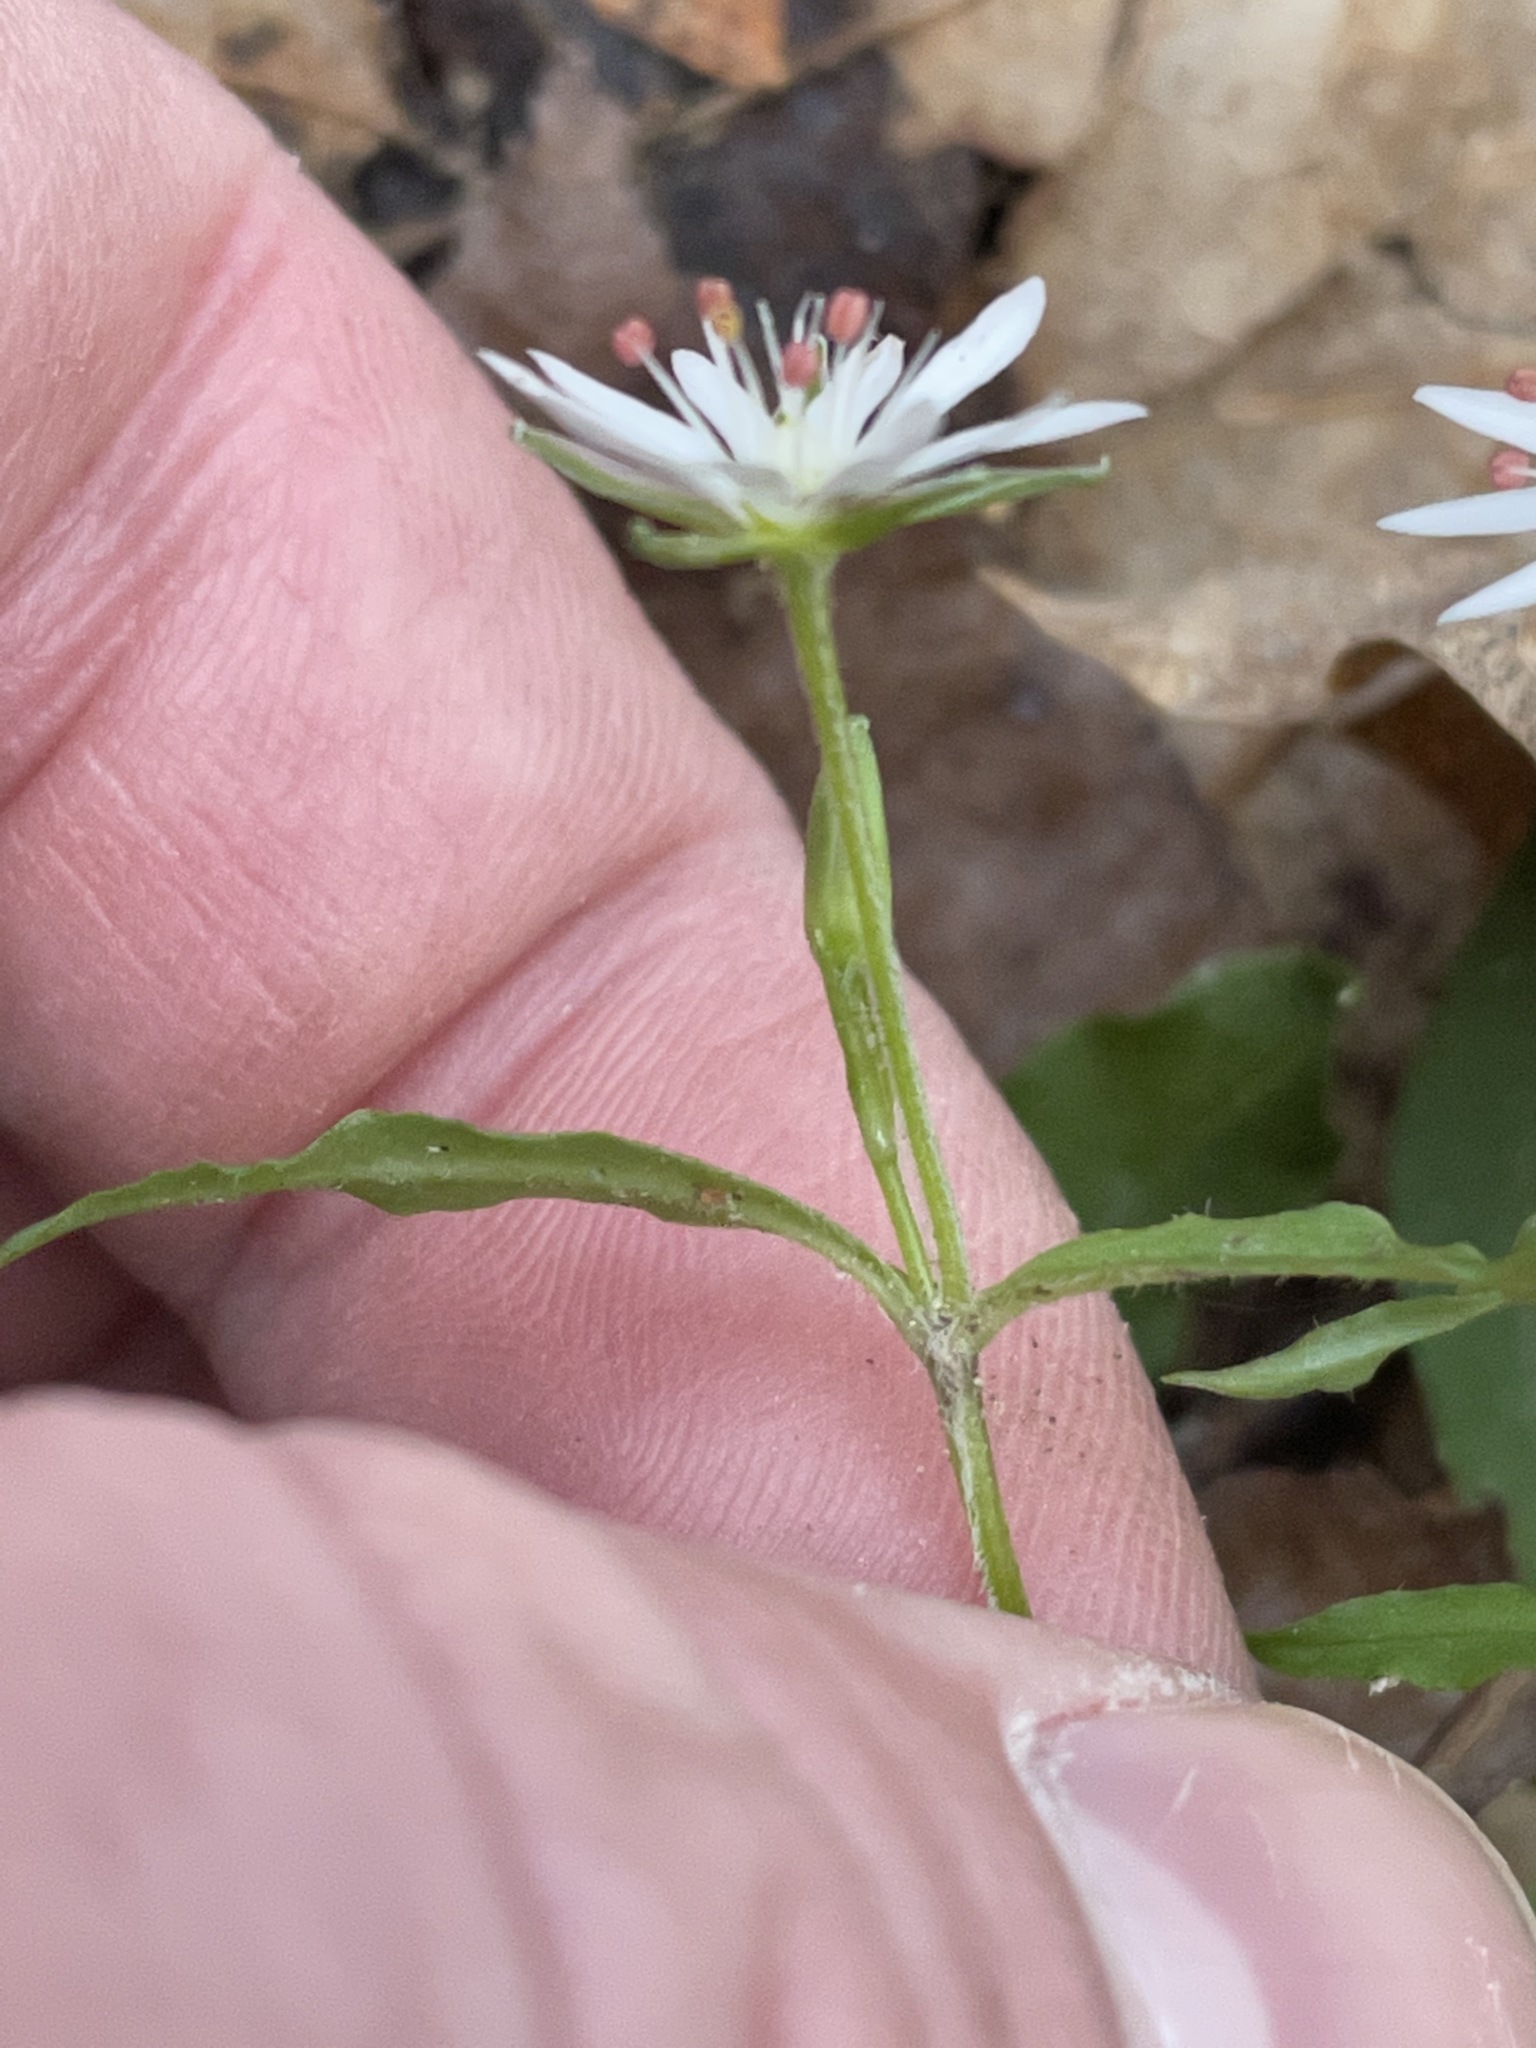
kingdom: Plantae
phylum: Tracheophyta
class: Magnoliopsida
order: Caryophyllales
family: Caryophyllaceae
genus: Stellaria
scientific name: Stellaria pubera
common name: Star chickweed
